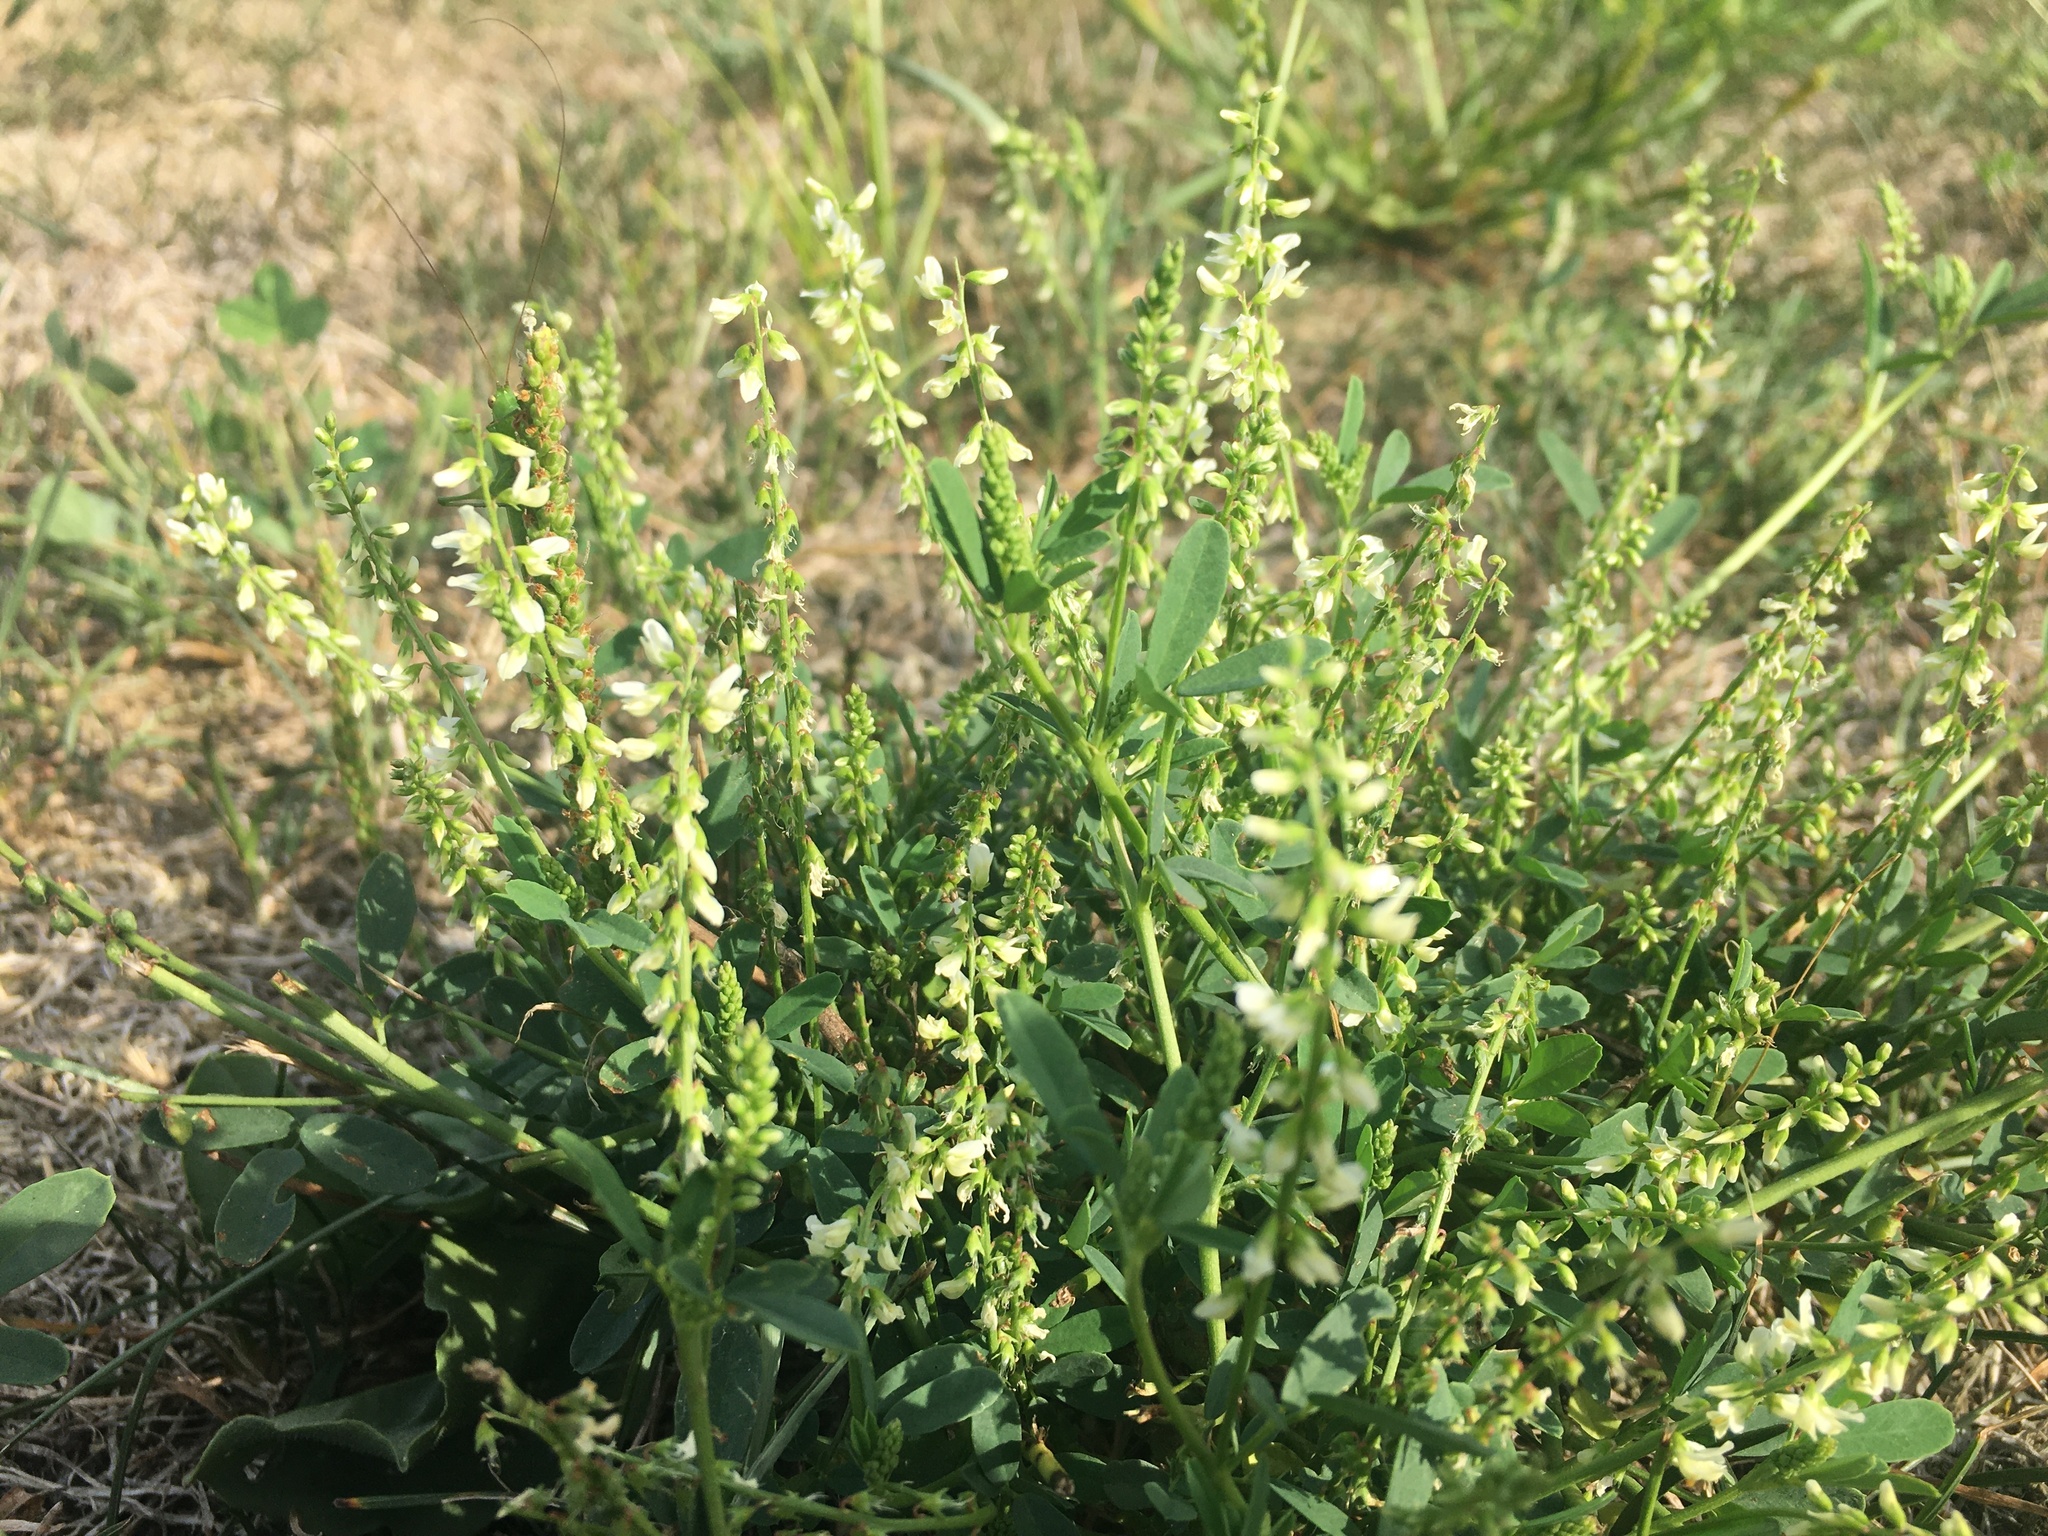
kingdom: Plantae
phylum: Tracheophyta
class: Magnoliopsida
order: Fabales
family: Fabaceae
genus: Melilotus
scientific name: Melilotus albus
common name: White melilot
